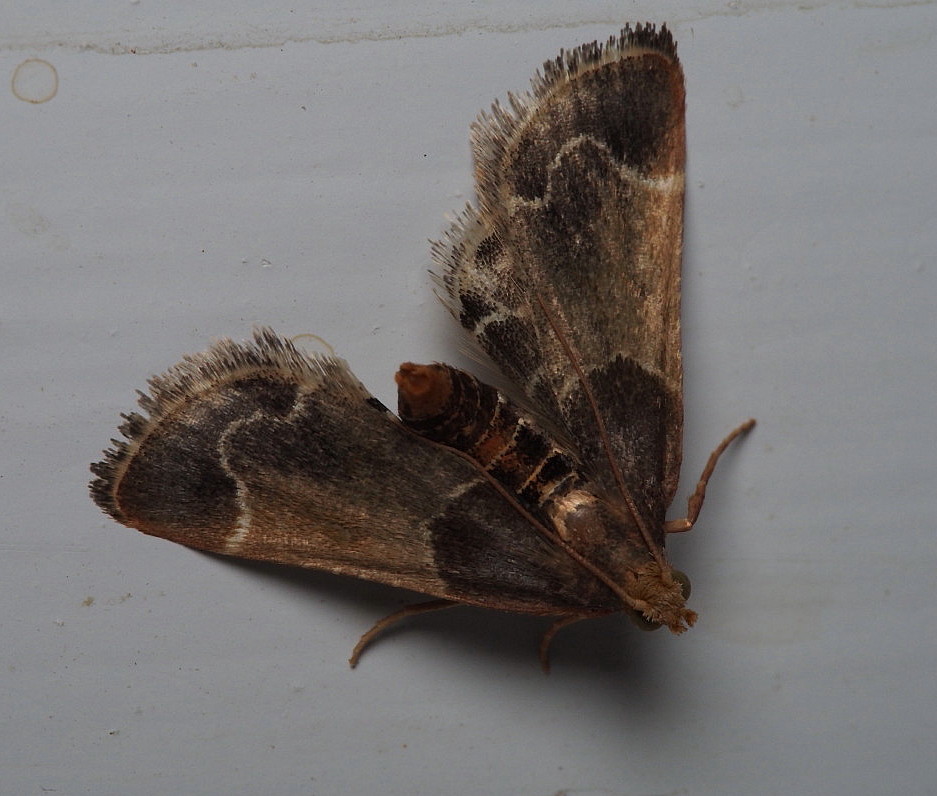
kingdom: Animalia
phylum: Arthropoda
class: Insecta
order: Lepidoptera
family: Pyralidae
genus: Pyralis
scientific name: Pyralis farinalis
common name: Meal moth
